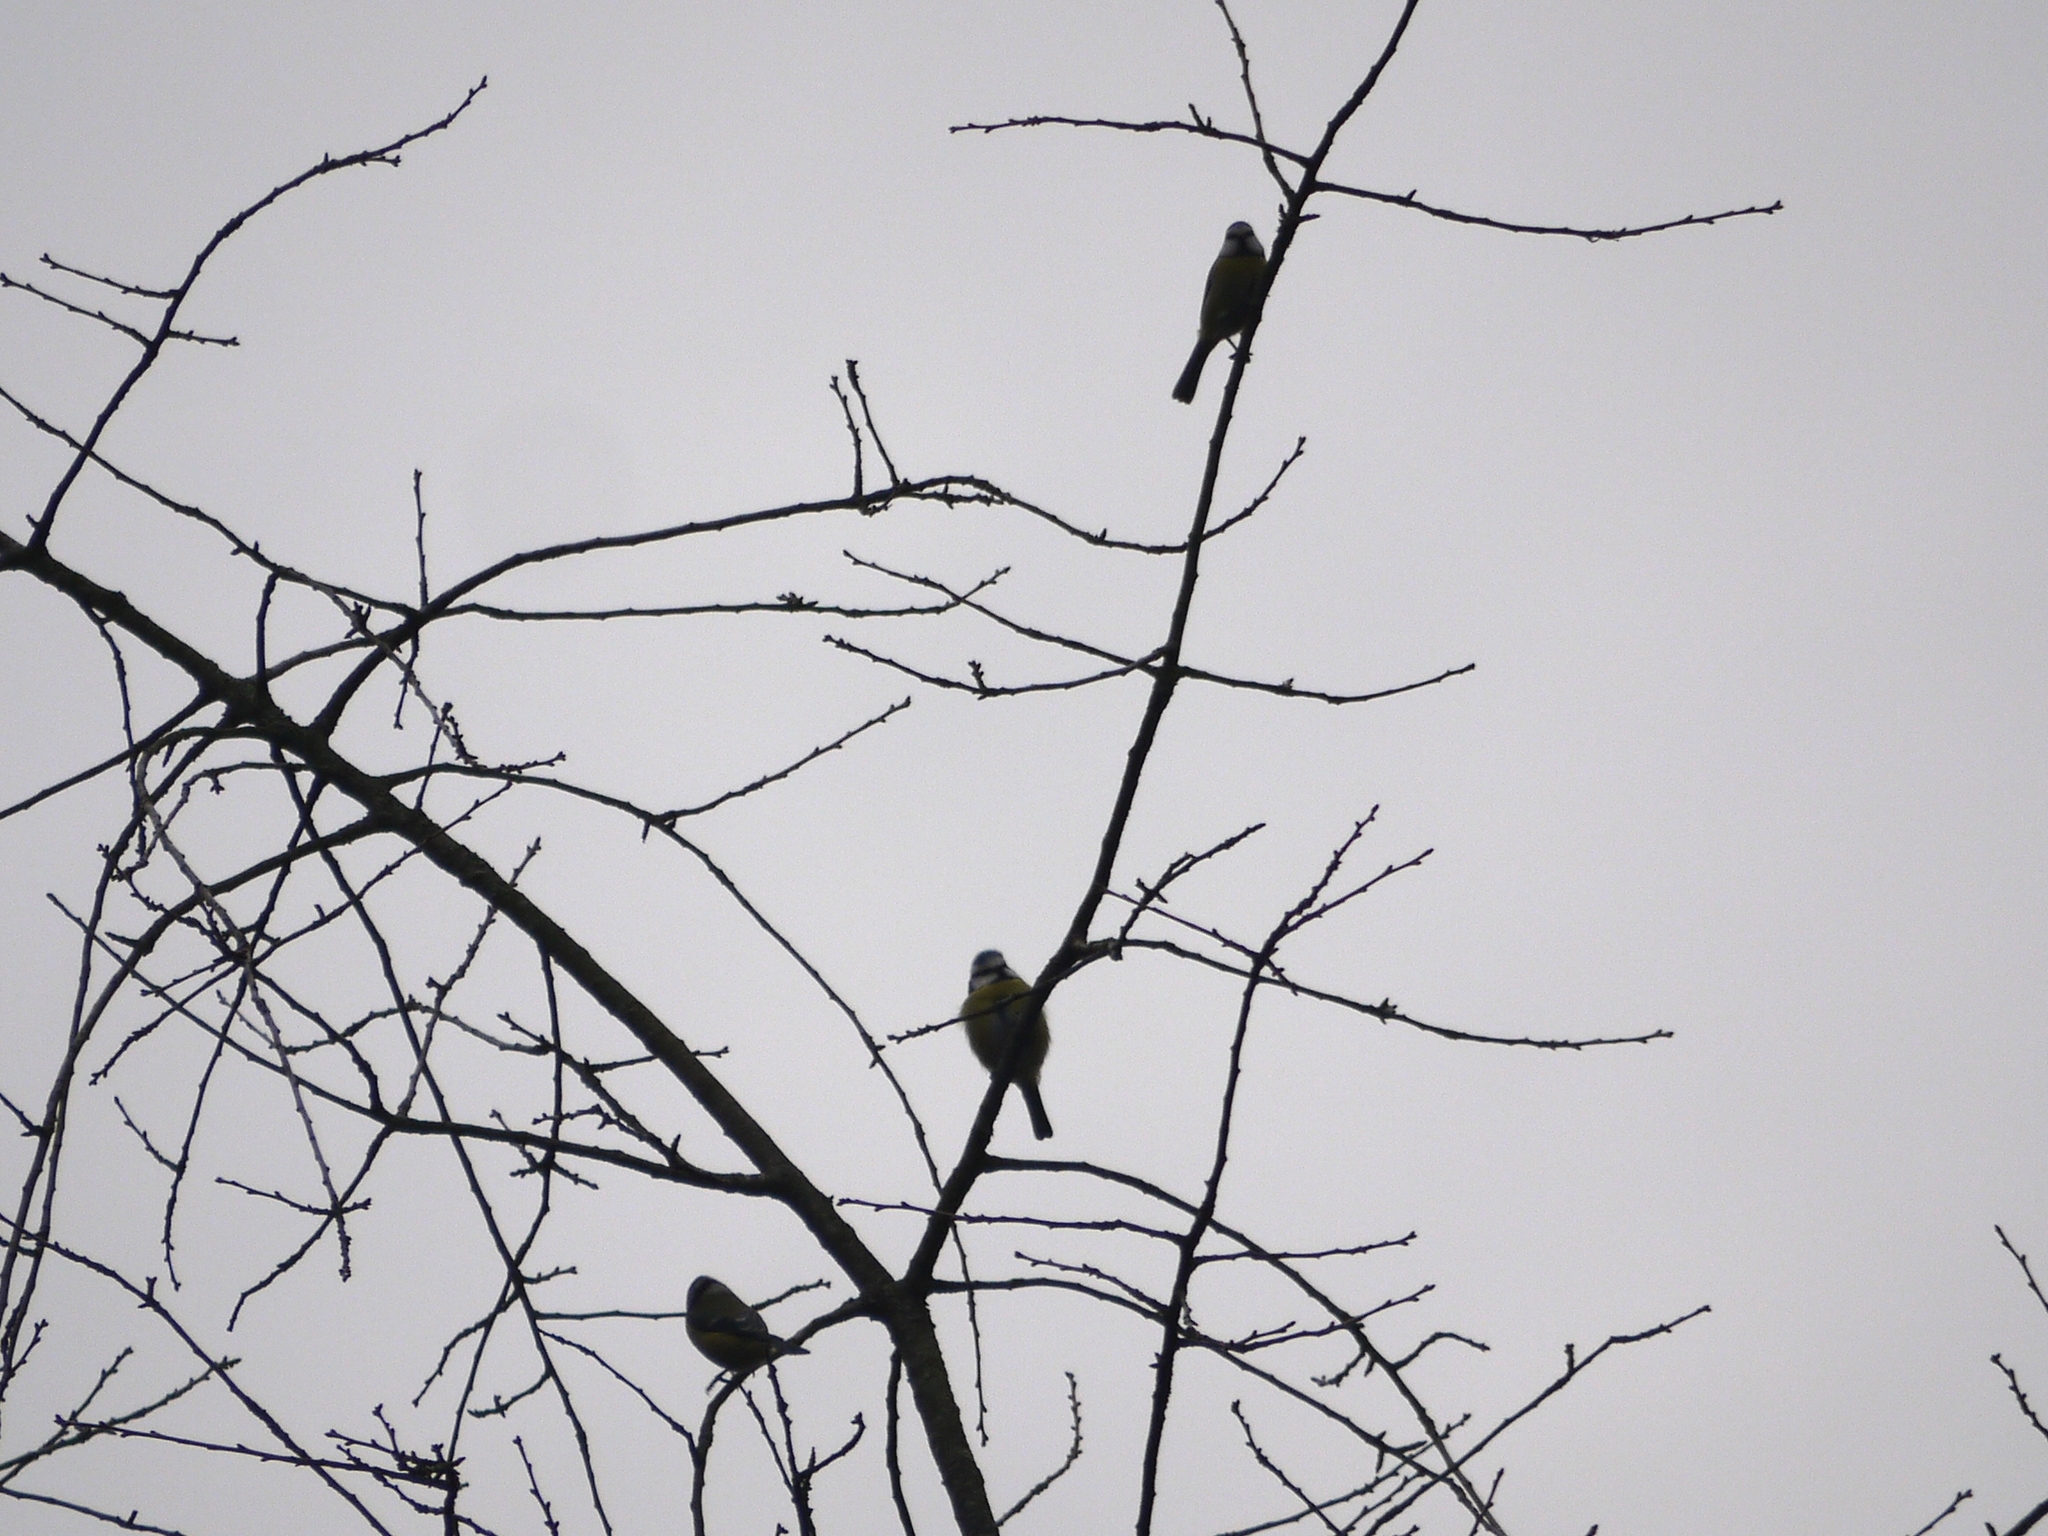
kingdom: Animalia
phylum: Chordata
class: Aves
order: Passeriformes
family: Paridae
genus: Cyanistes
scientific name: Cyanistes caeruleus
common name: Eurasian blue tit
